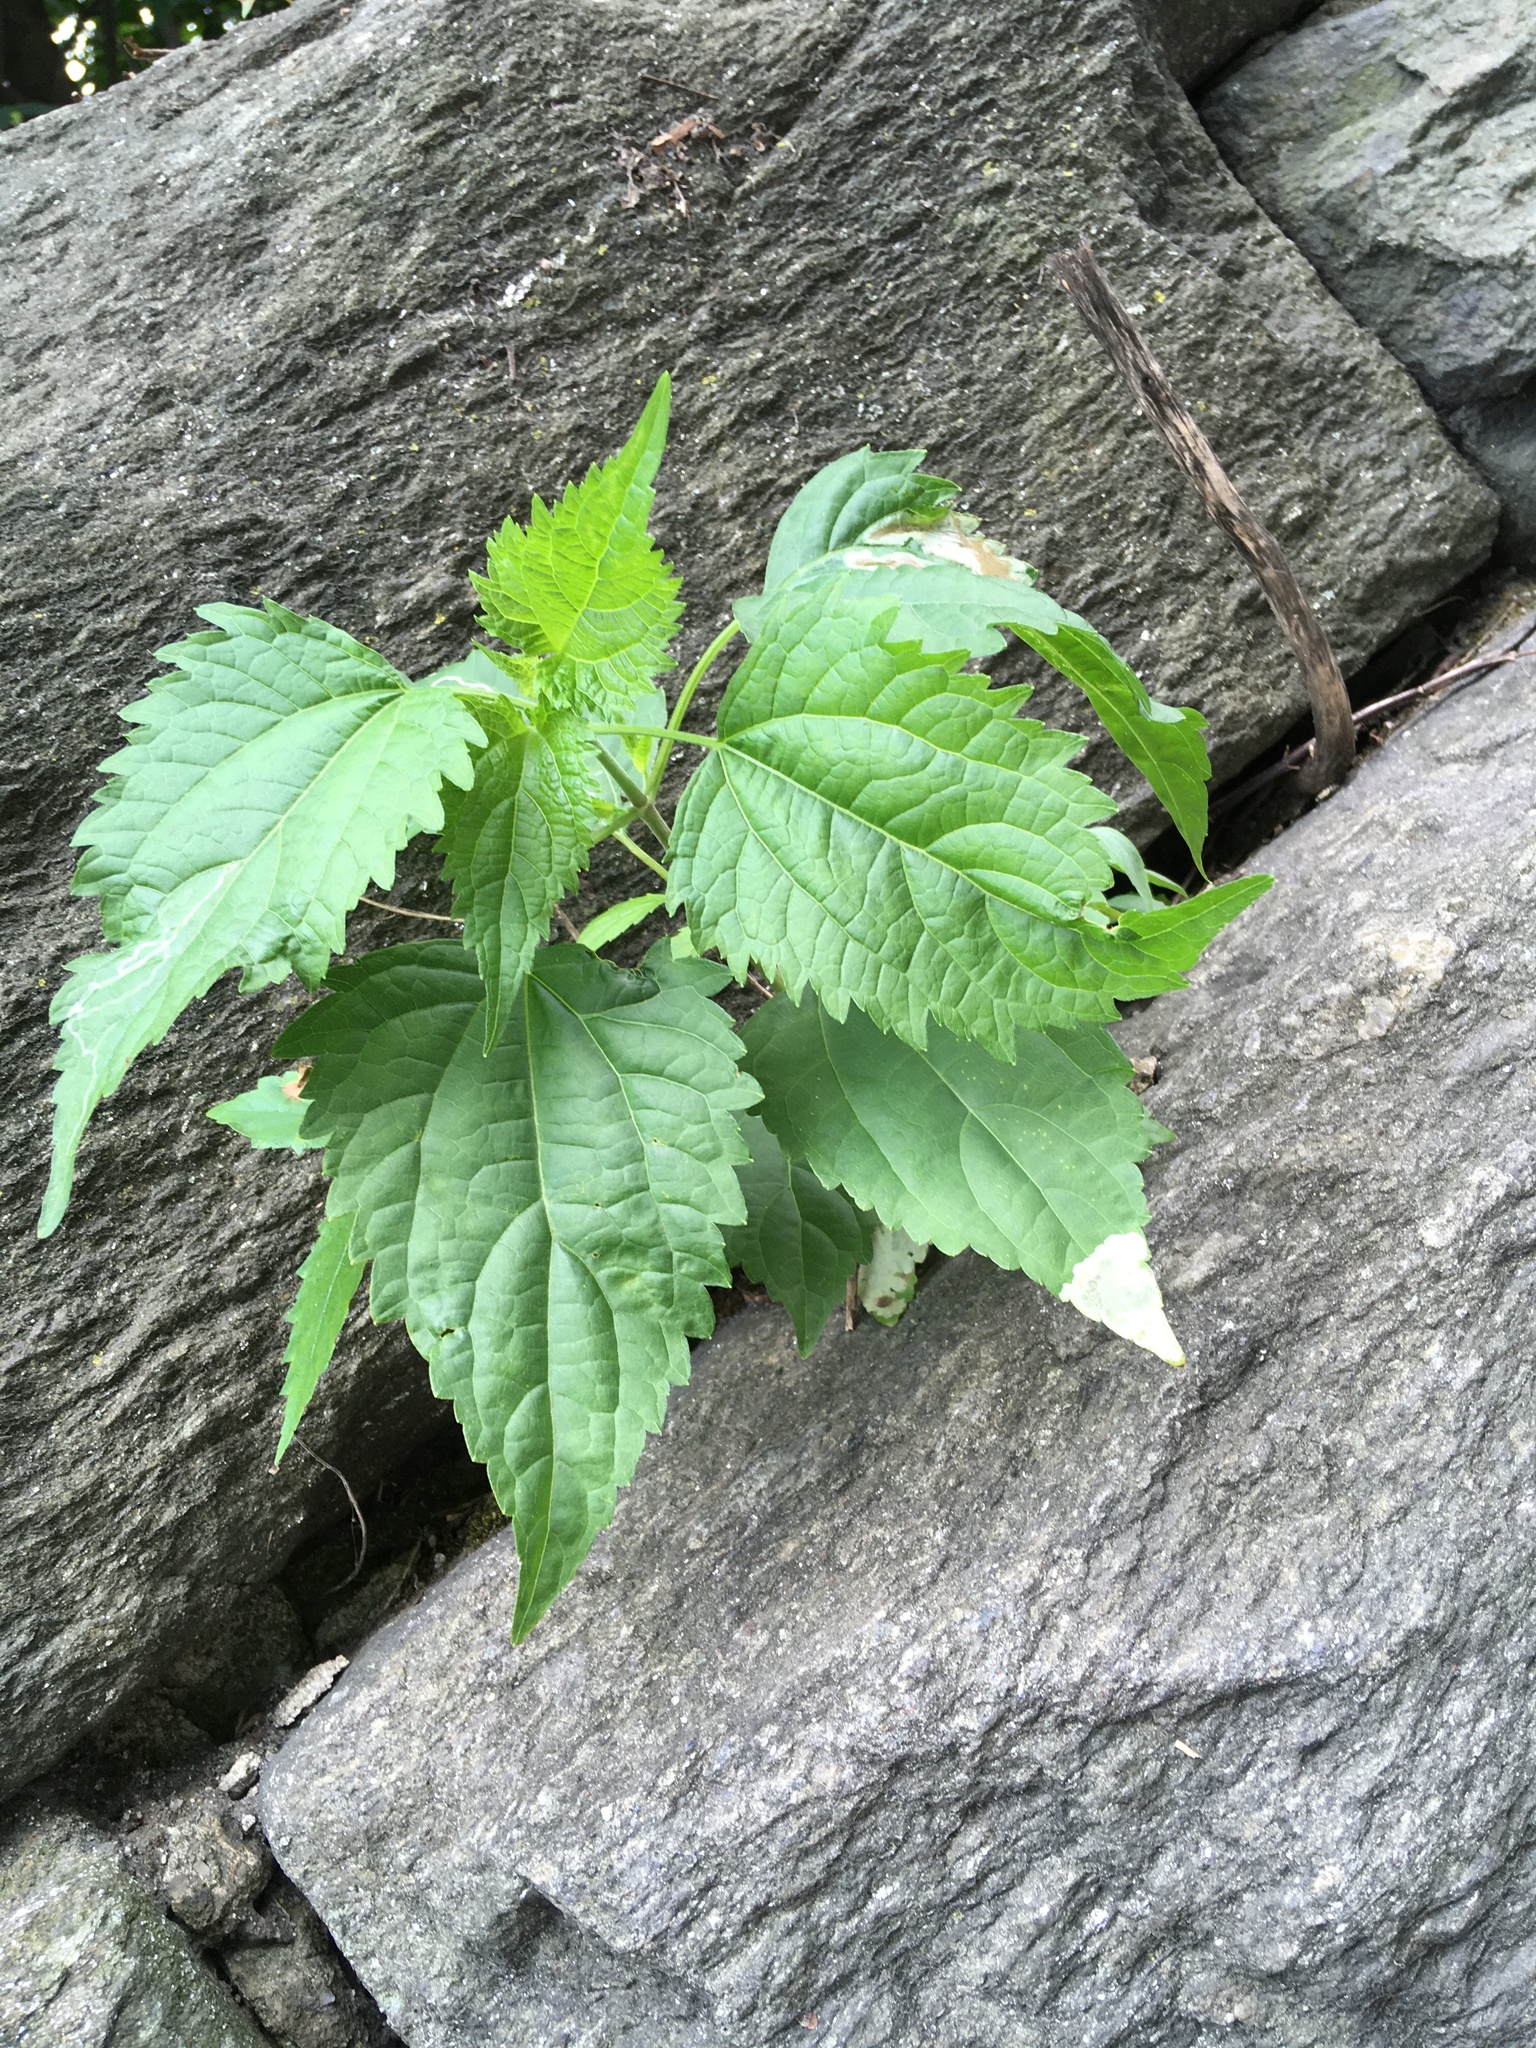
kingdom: Plantae
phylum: Tracheophyta
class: Magnoliopsida
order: Asterales
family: Asteraceae
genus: Ageratina
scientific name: Ageratina altissima
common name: White snakeroot
